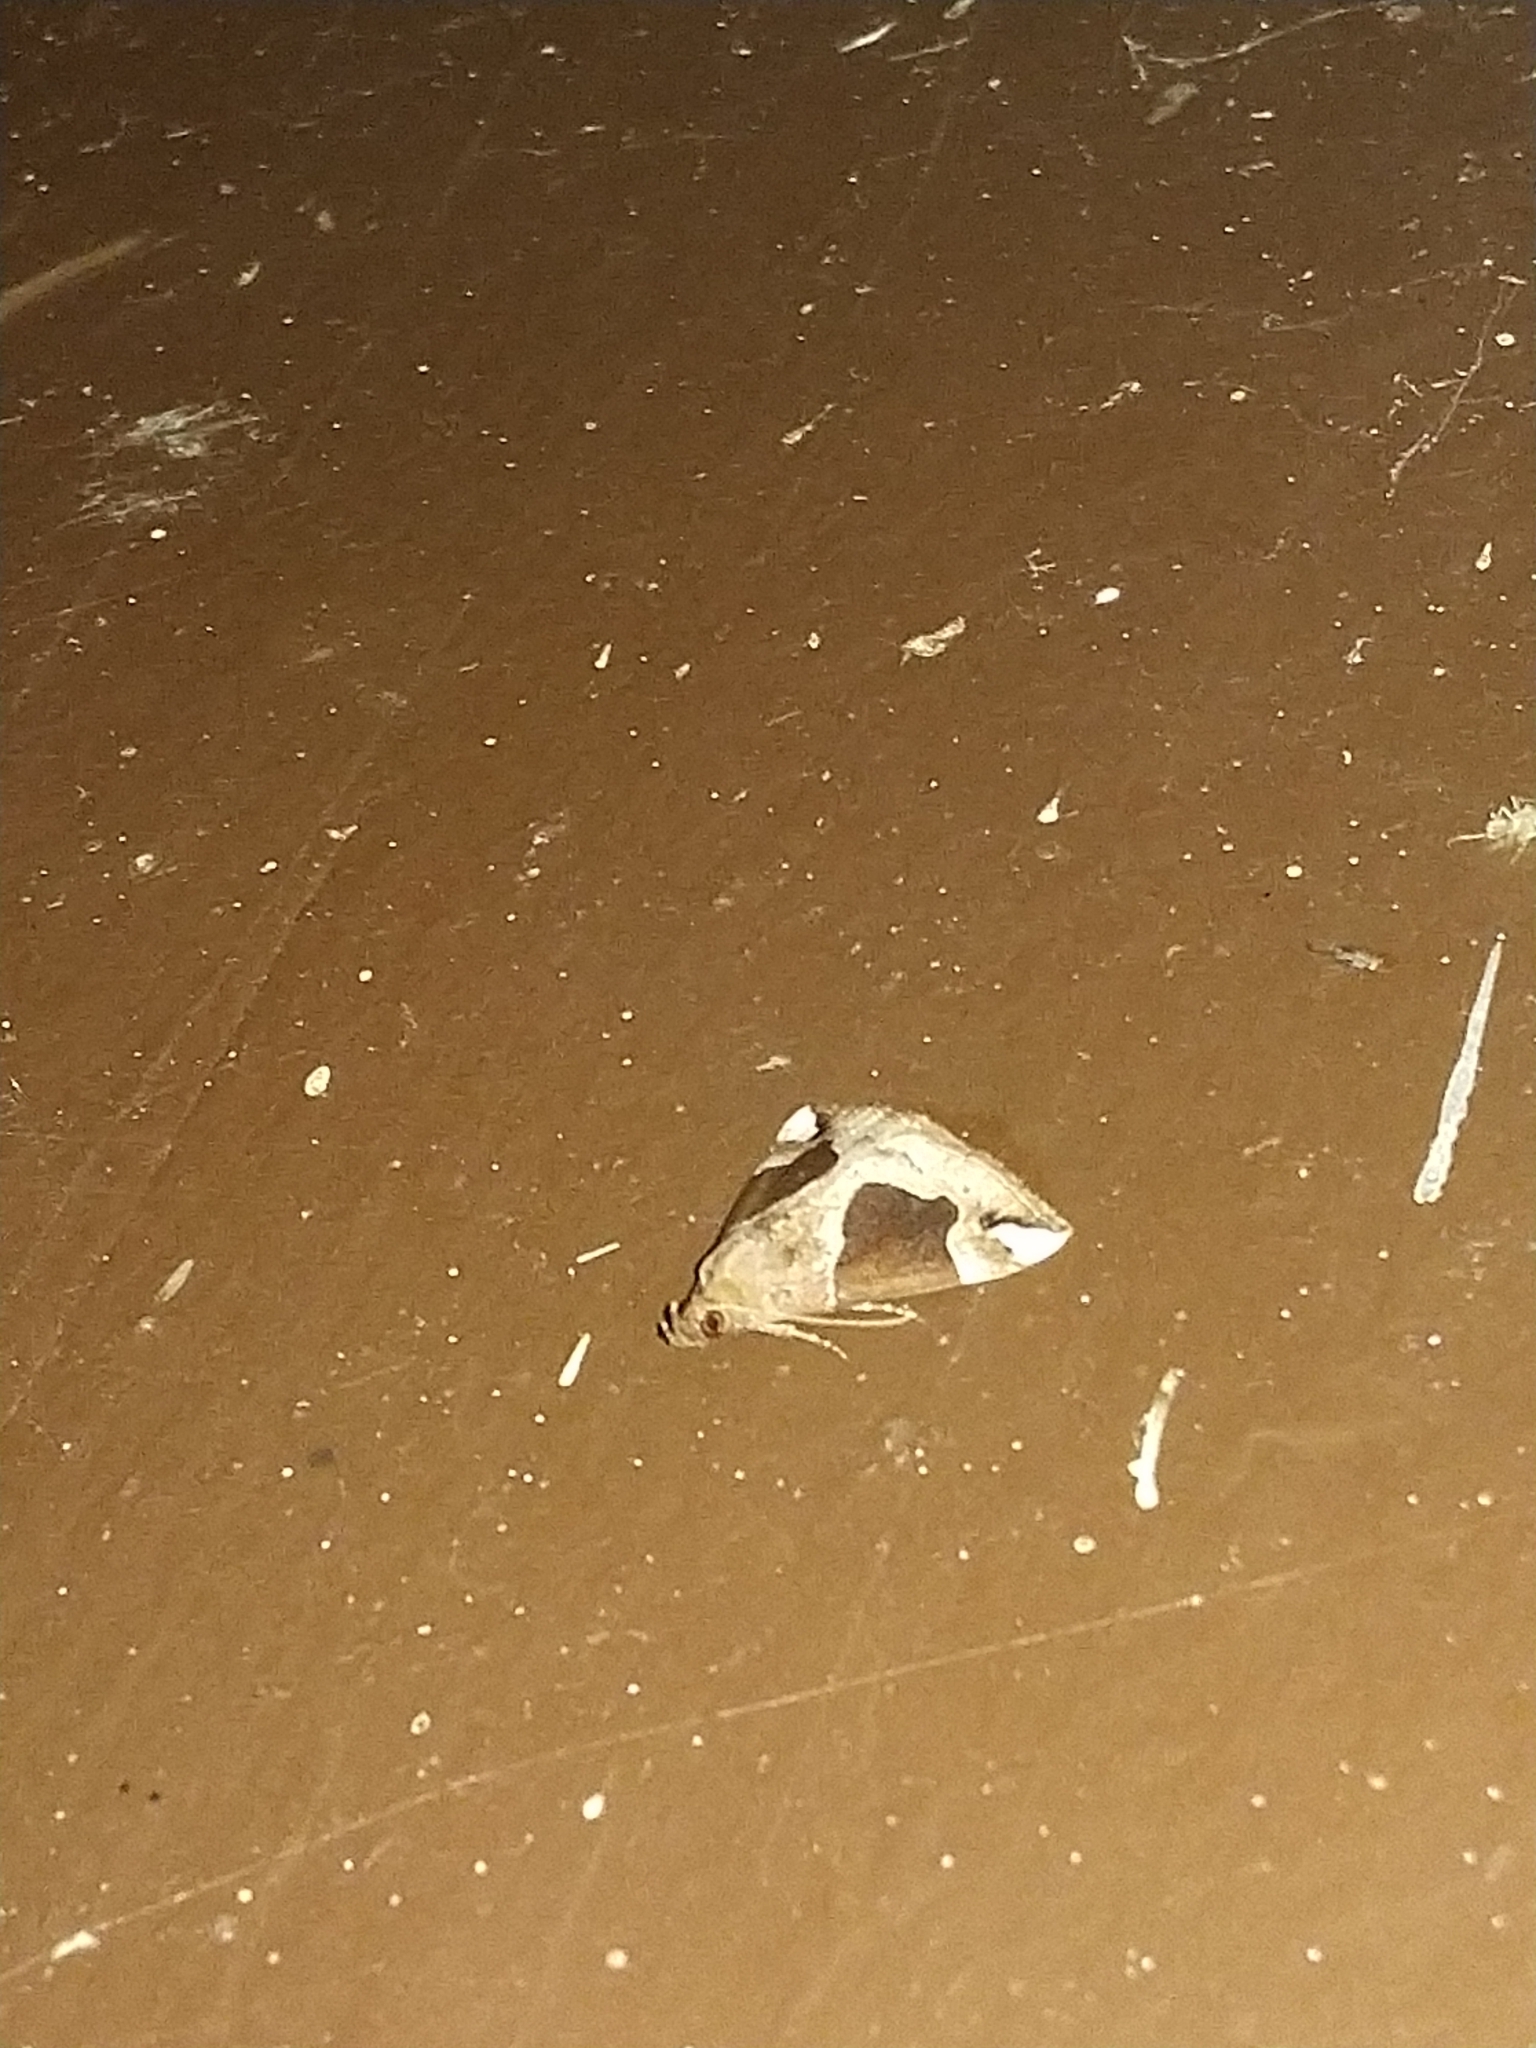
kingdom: Animalia
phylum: Arthropoda
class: Insecta
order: Lepidoptera
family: Erebidae
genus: Hypena
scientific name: Hypena manalis
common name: Flowing-line bomolocha moth
